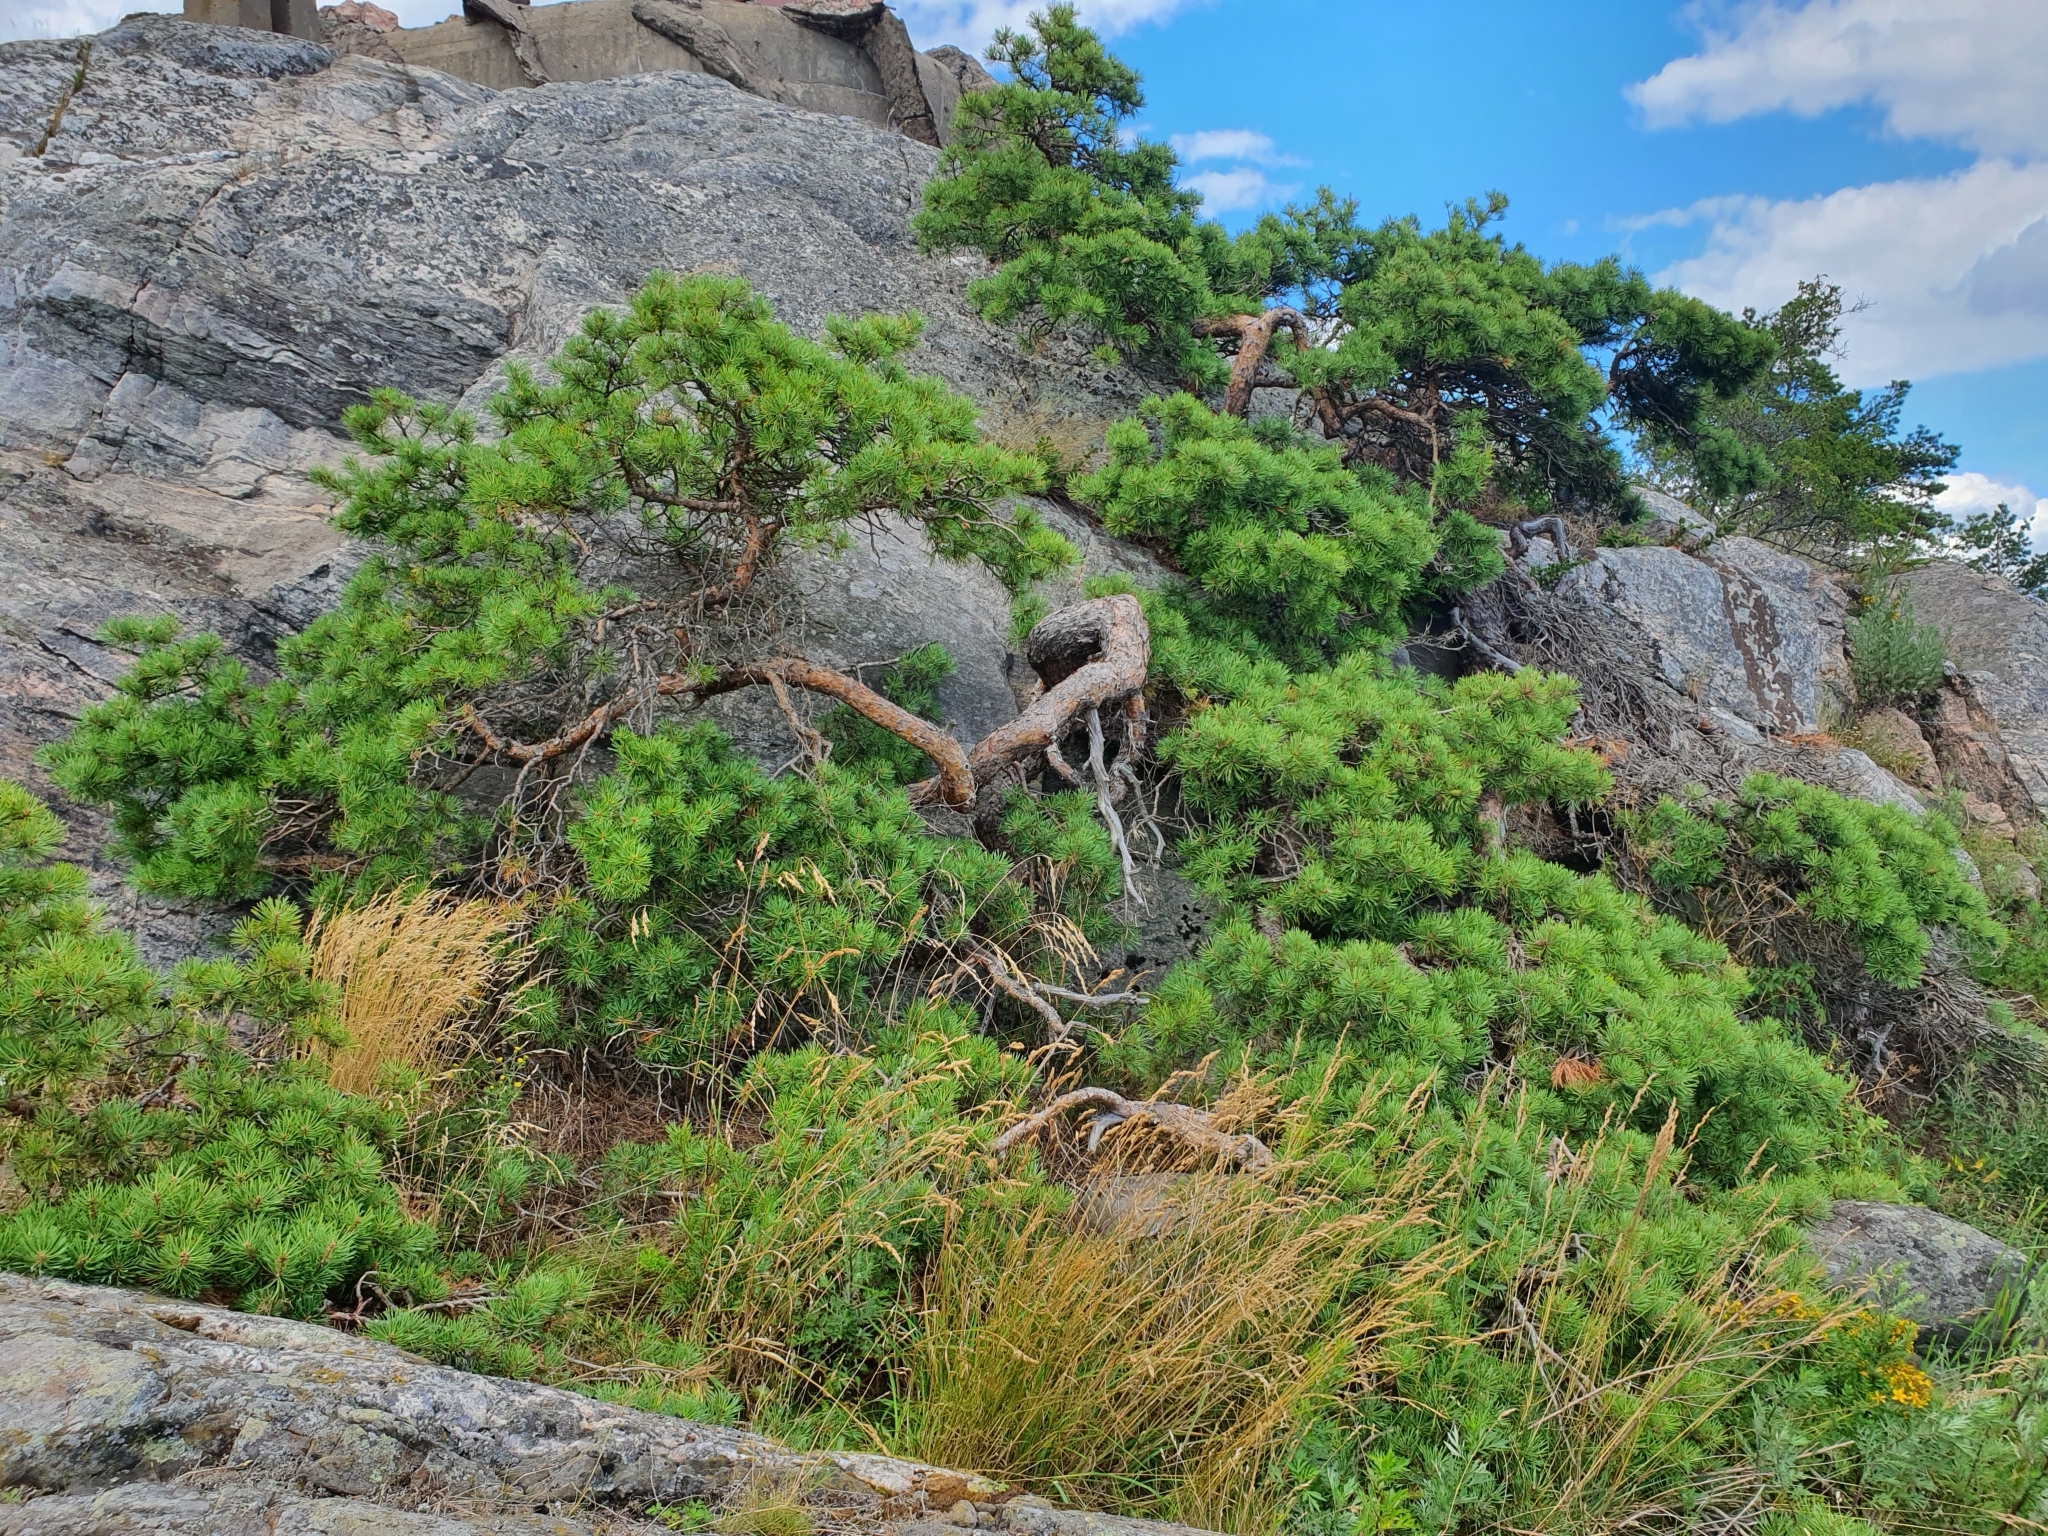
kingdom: Plantae
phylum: Tracheophyta
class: Pinopsida
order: Pinales
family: Pinaceae
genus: Pinus
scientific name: Pinus sylvestris
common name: Scots pine
